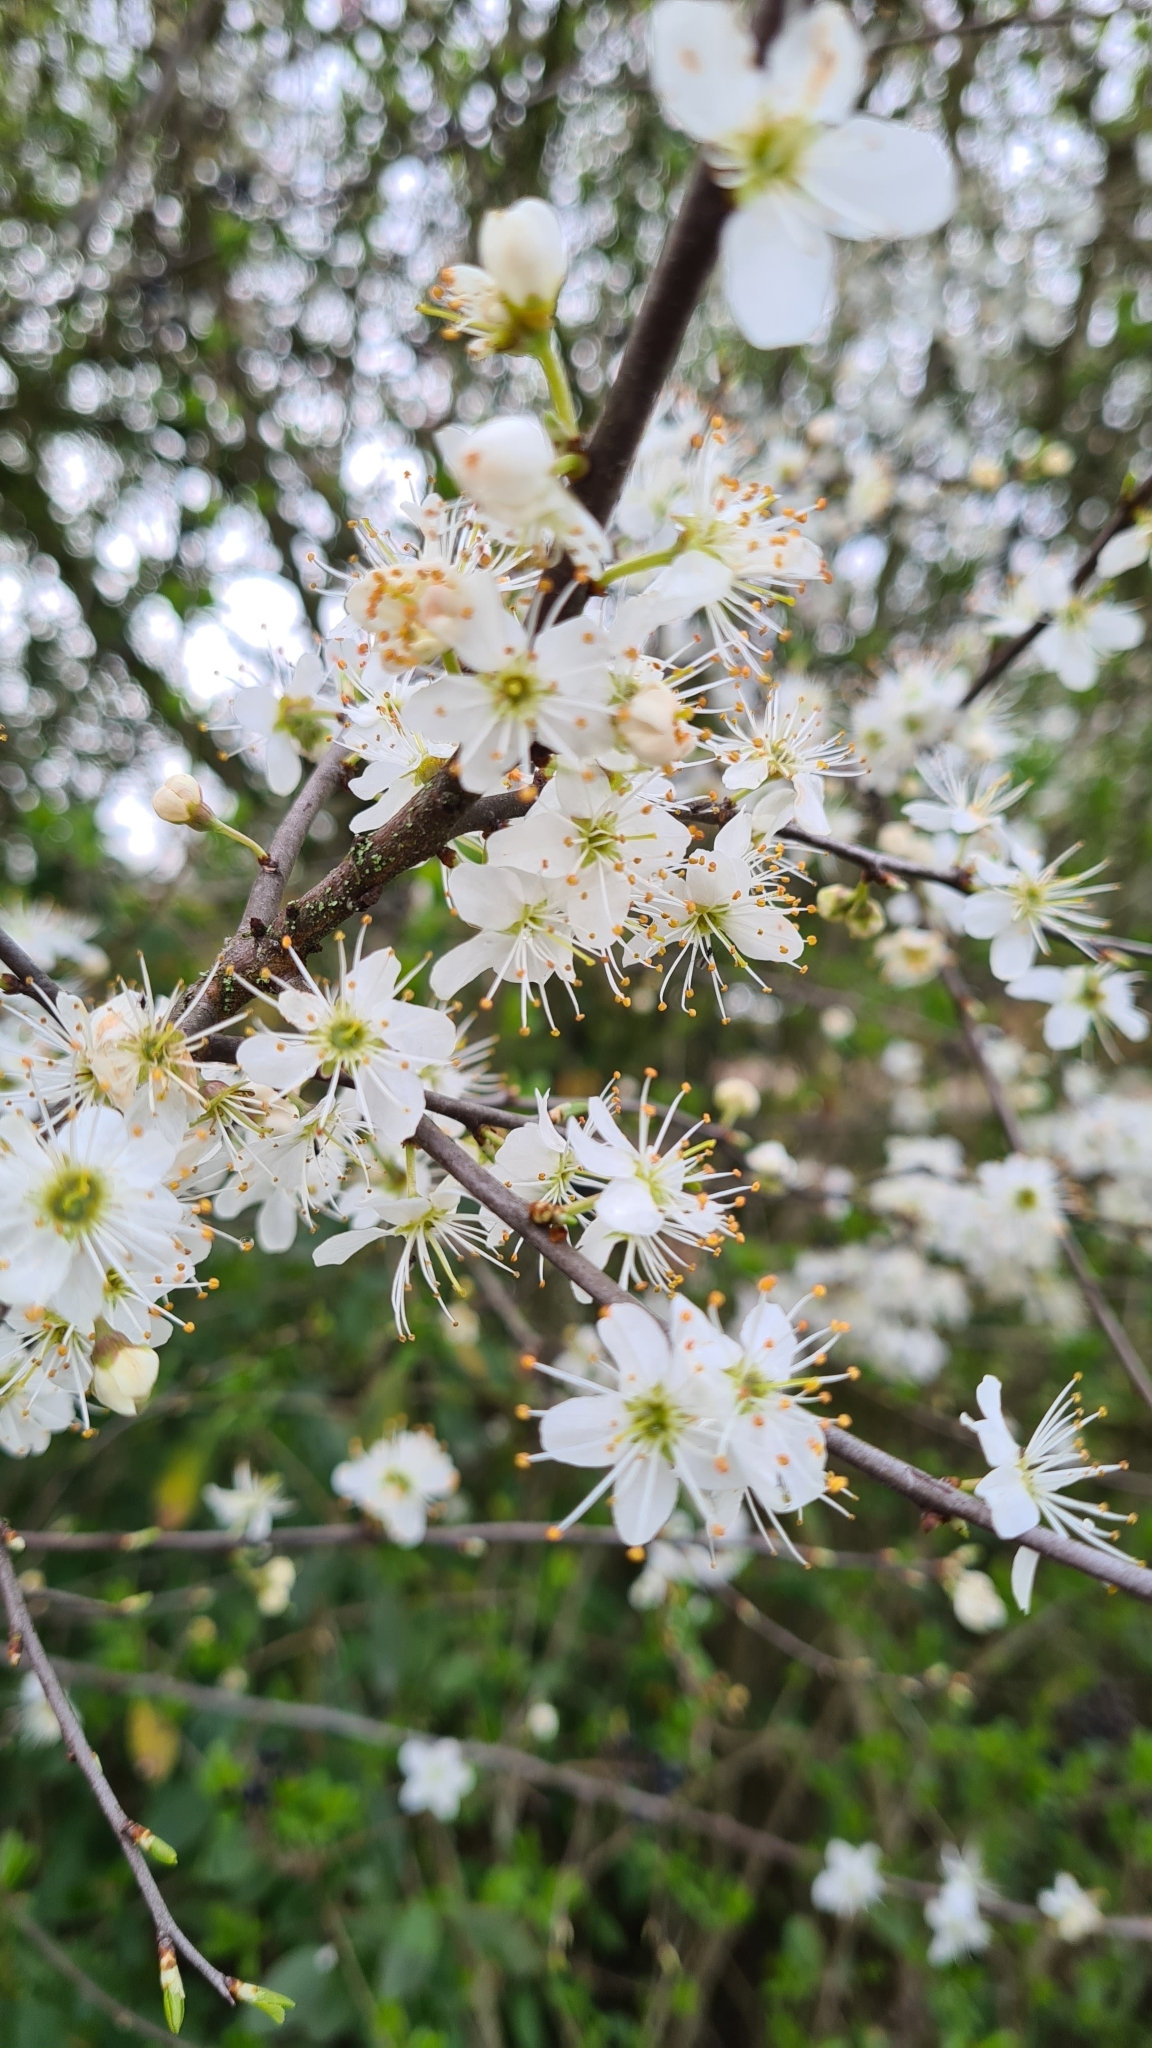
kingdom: Plantae
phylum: Tracheophyta
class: Magnoliopsida
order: Rosales
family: Rosaceae
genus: Prunus
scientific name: Prunus spinosa
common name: Blackthorn
